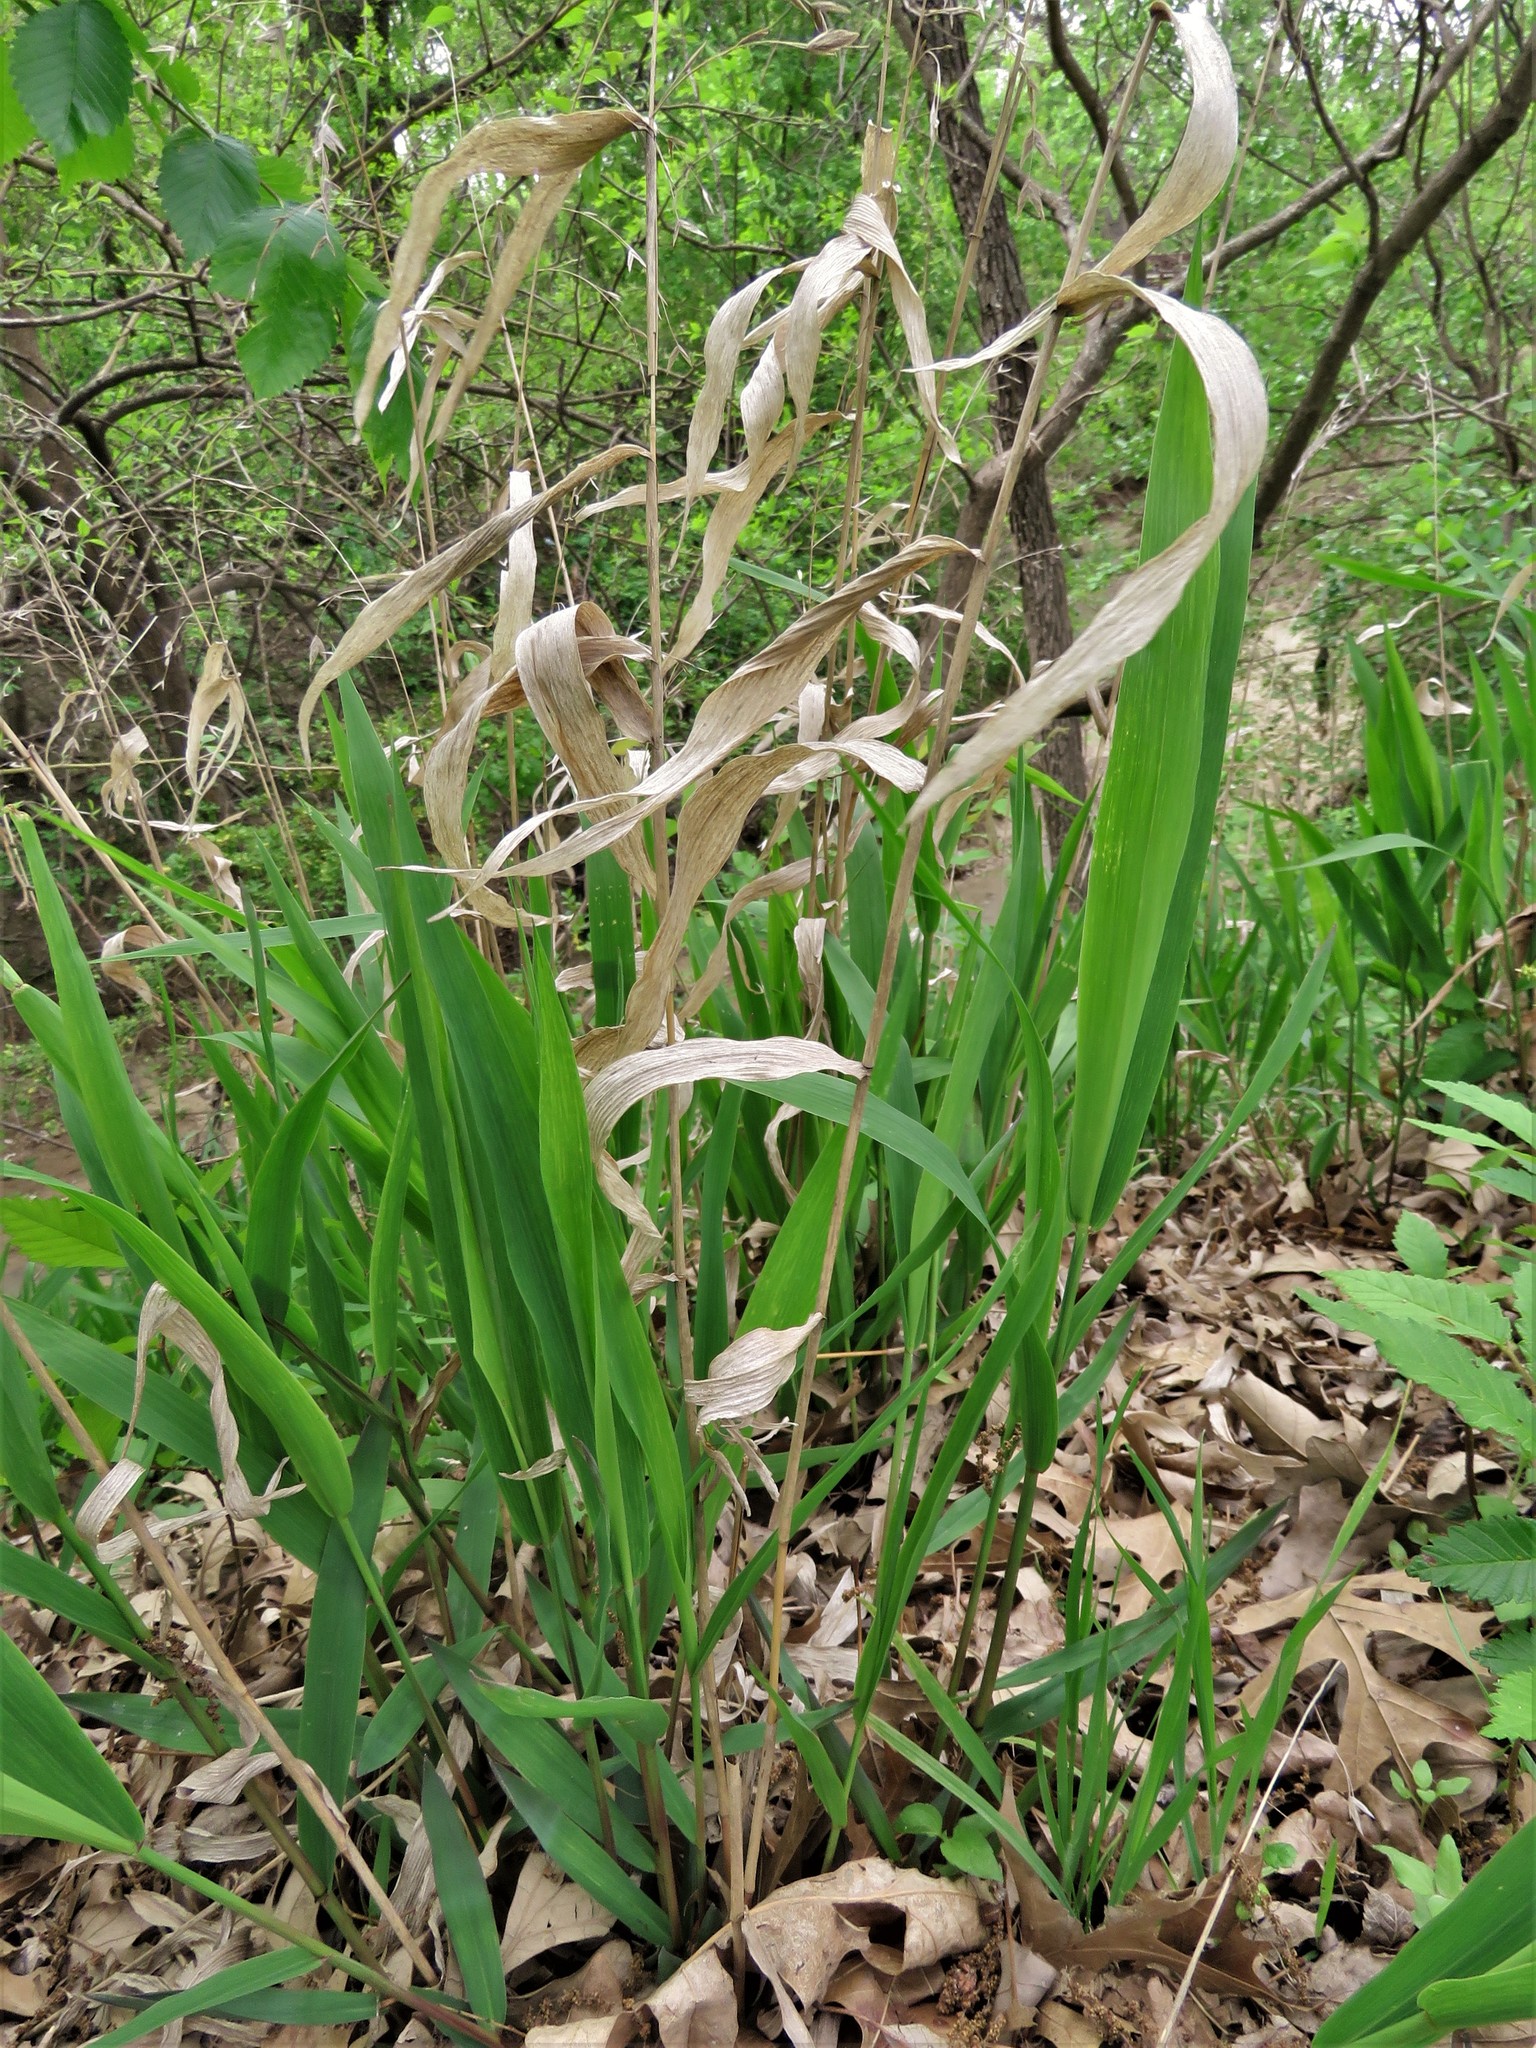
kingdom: Plantae
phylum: Tracheophyta
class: Liliopsida
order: Poales
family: Poaceae
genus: Chasmanthium
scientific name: Chasmanthium latifolium
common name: Broad-leaved chasmanthium
